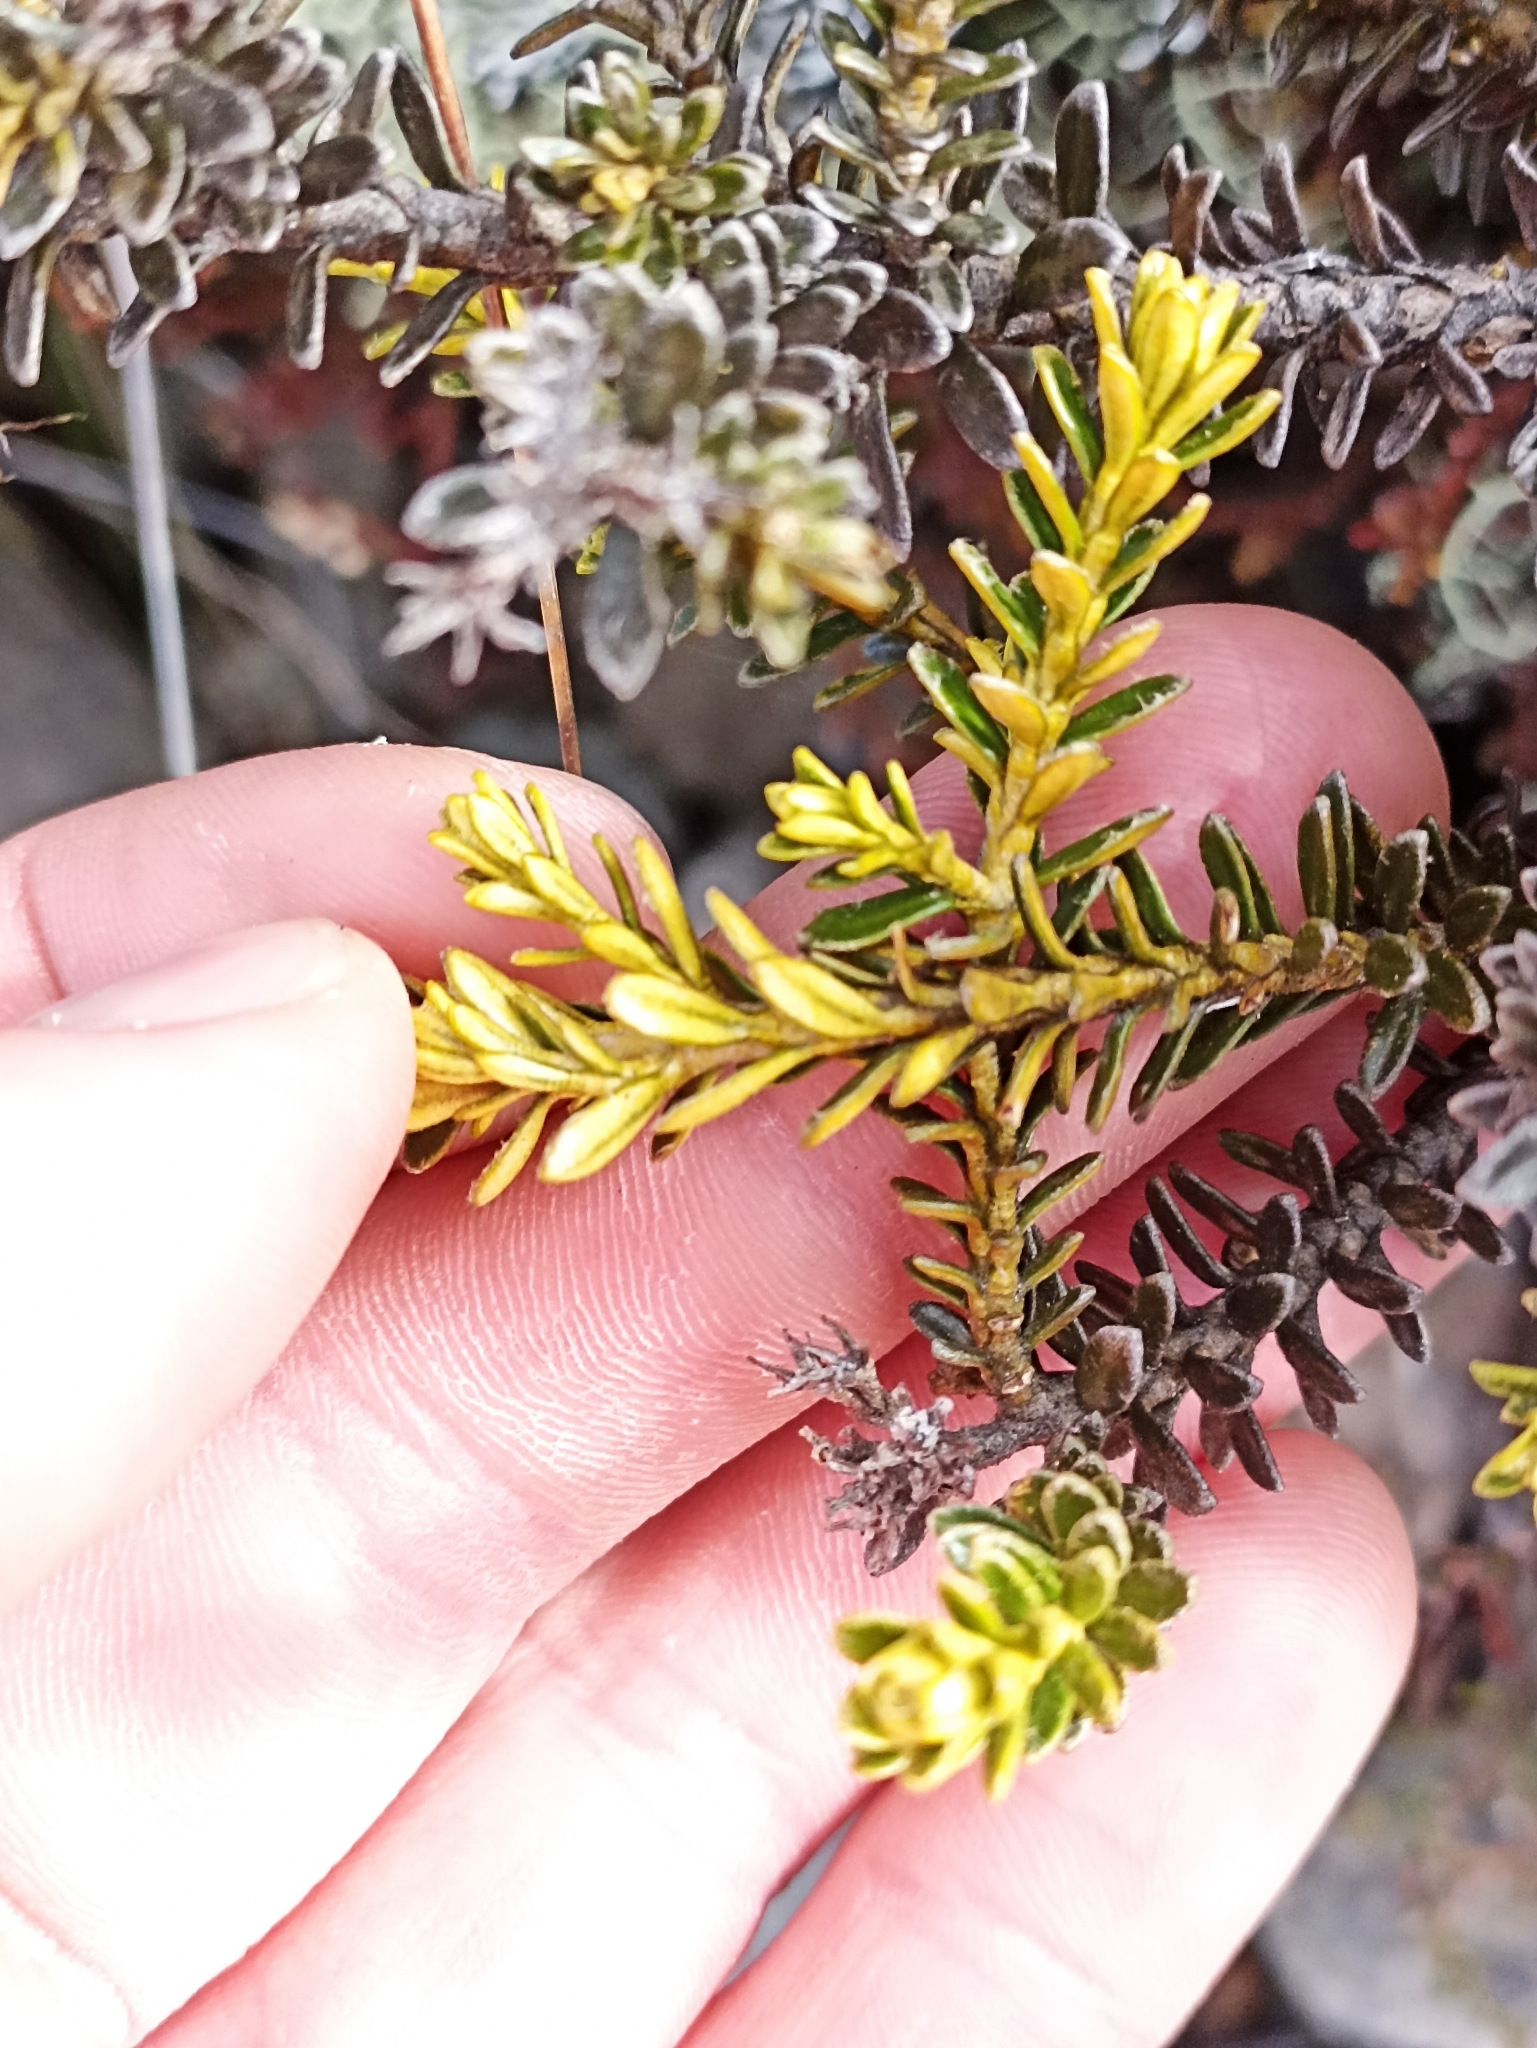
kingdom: Plantae
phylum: Tracheophyta
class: Magnoliopsida
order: Asterales
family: Asteraceae
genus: Ozothamnus
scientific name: Ozothamnus leptophyllus
